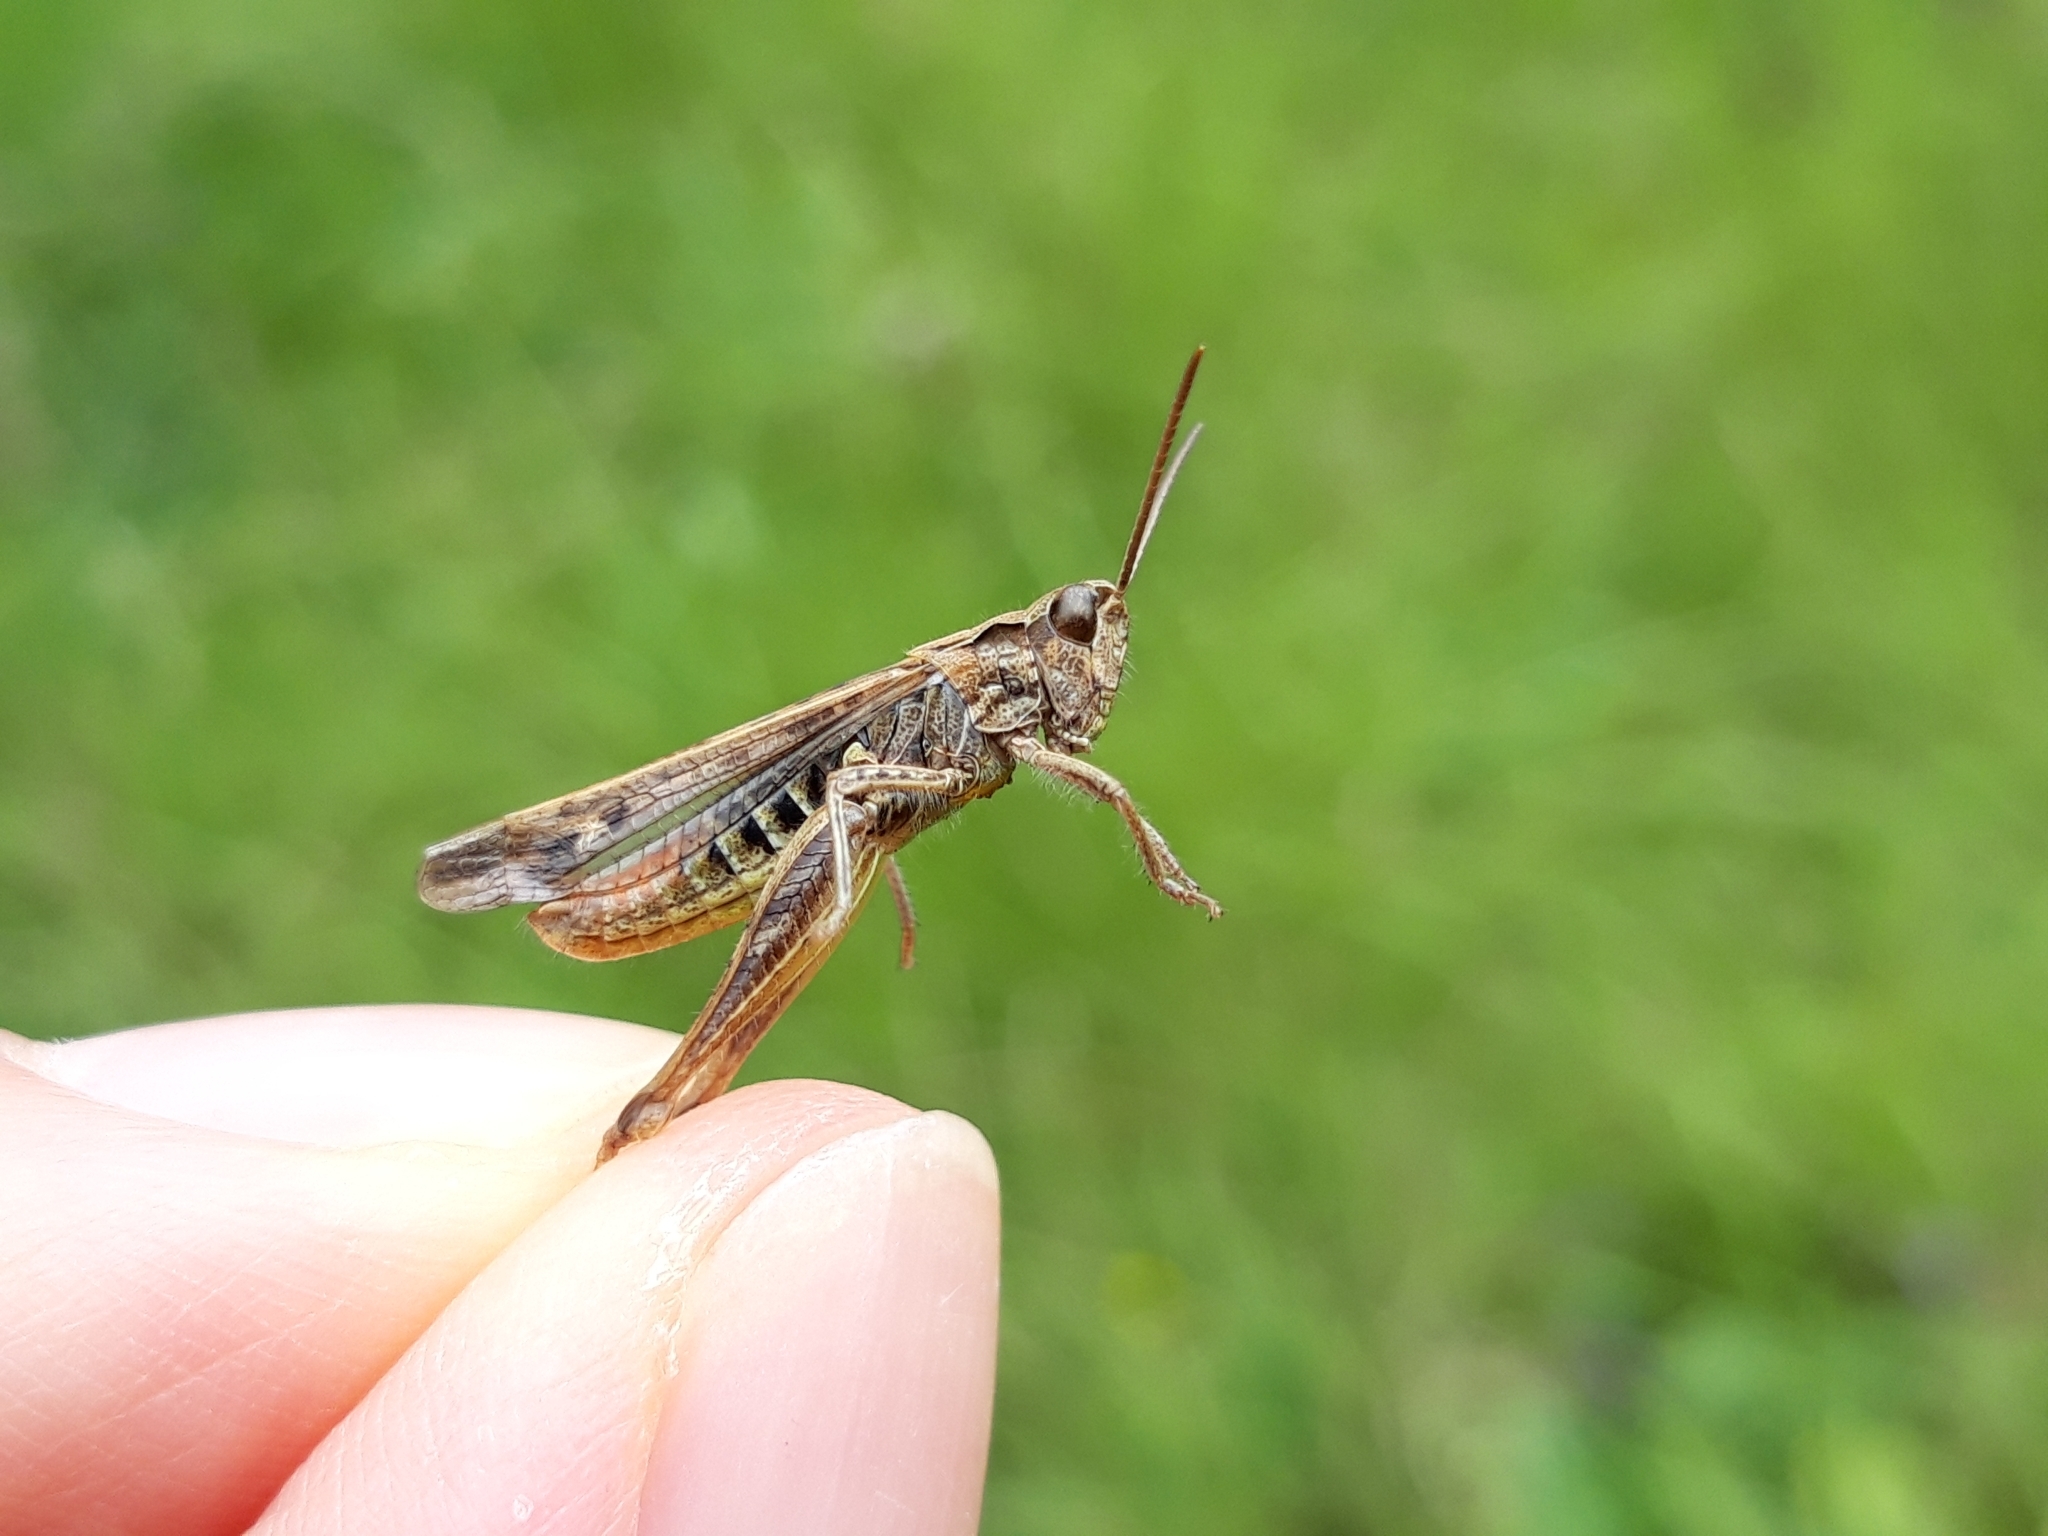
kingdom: Animalia
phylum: Arthropoda
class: Insecta
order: Orthoptera
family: Acrididae
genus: Chorthippus
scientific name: Chorthippus biguttulus
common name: Bow-winged grasshopper
